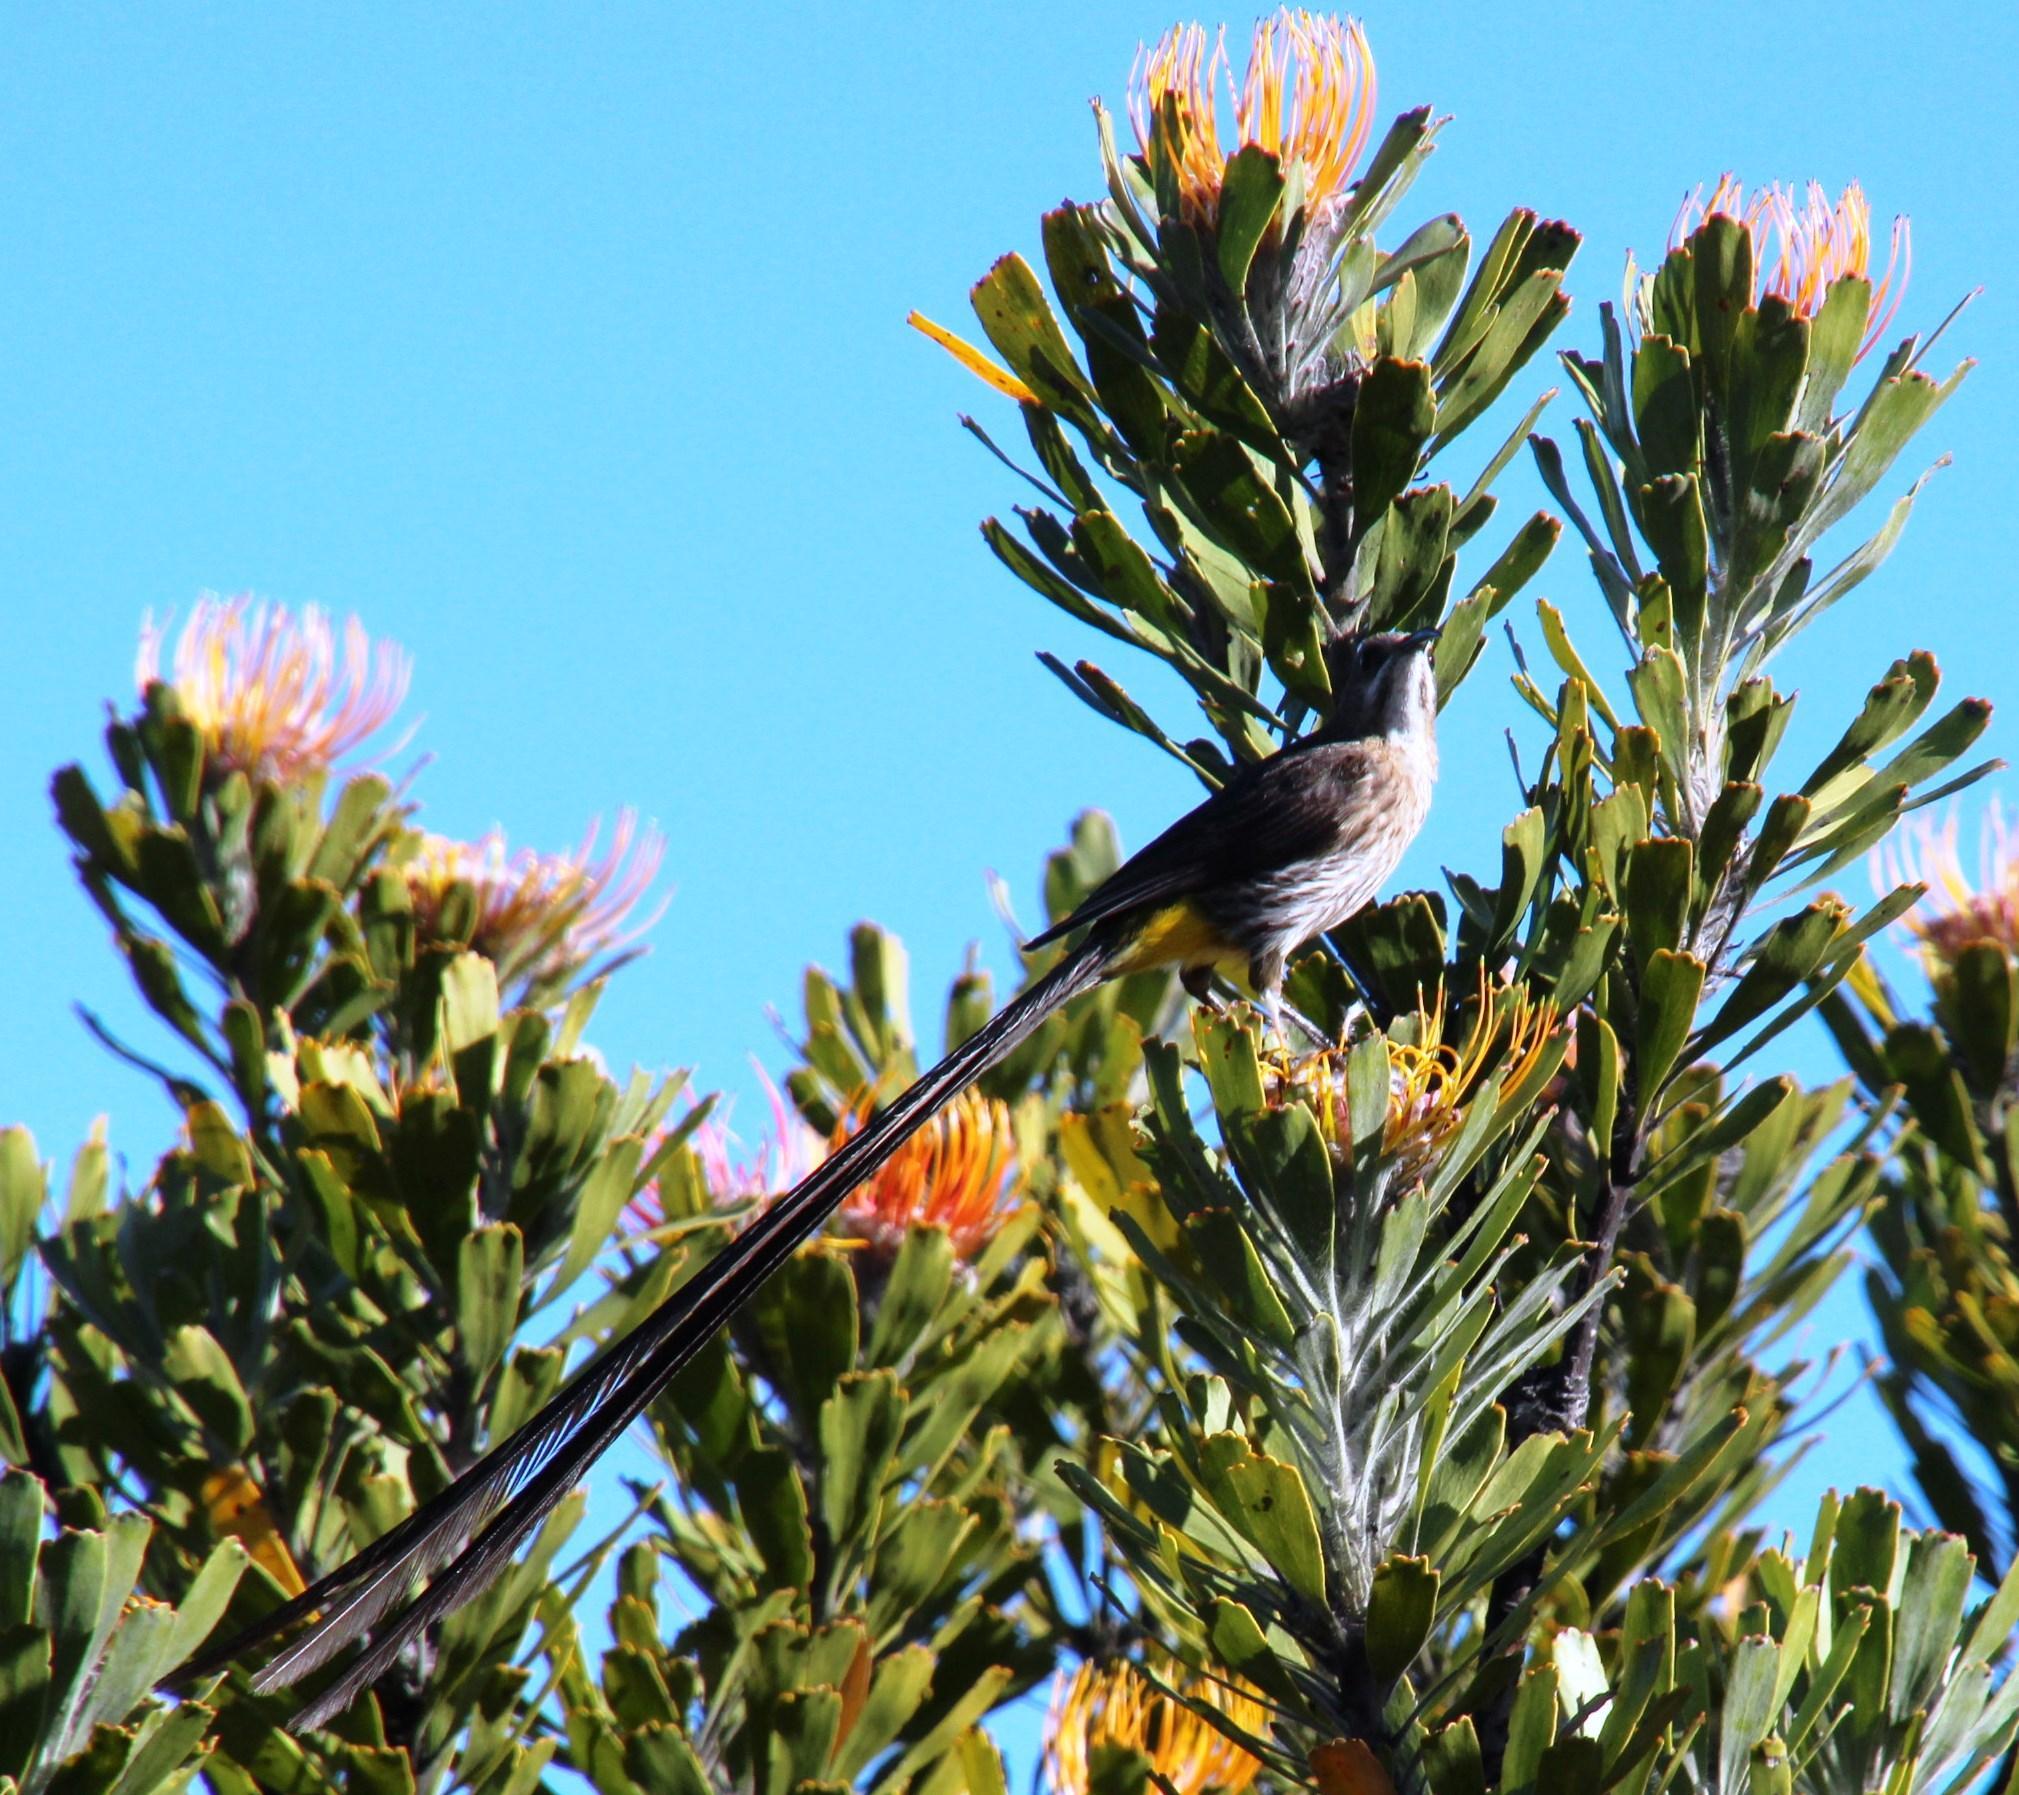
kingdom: Plantae
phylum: Tracheophyta
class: Magnoliopsida
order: Proteales
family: Proteaceae
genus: Leucospermum
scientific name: Leucospermum praemorsum
